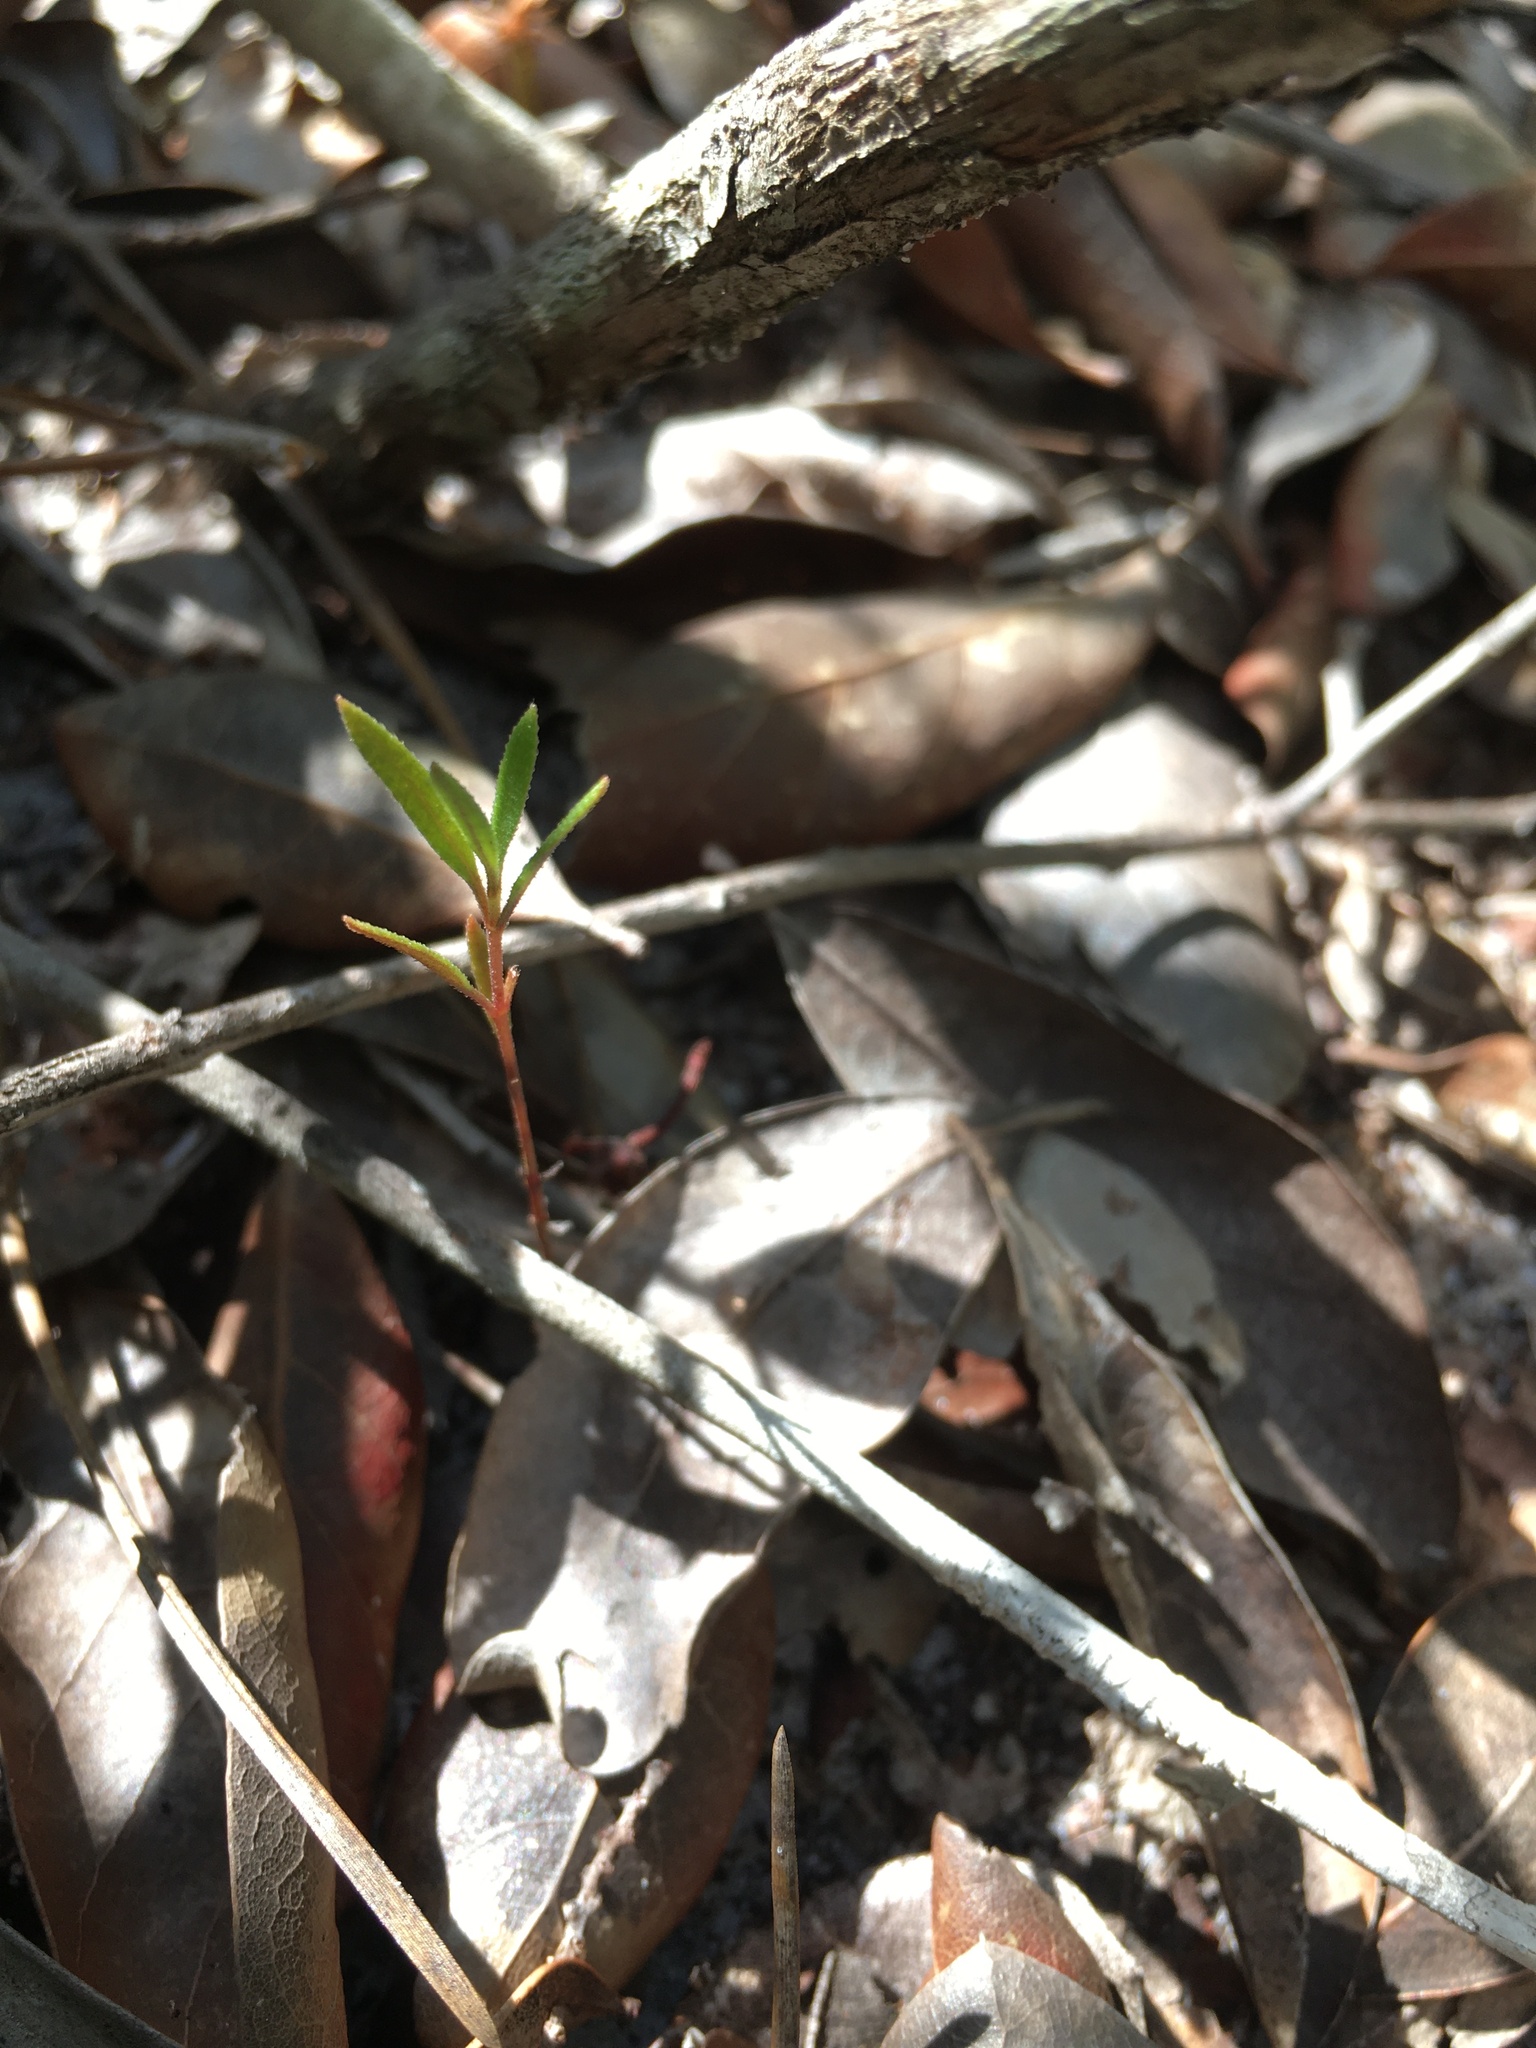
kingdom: Plantae
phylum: Tracheophyta
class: Magnoliopsida
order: Asterales
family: Asteraceae
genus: Palafoxia
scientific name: Palafoxia feayi
